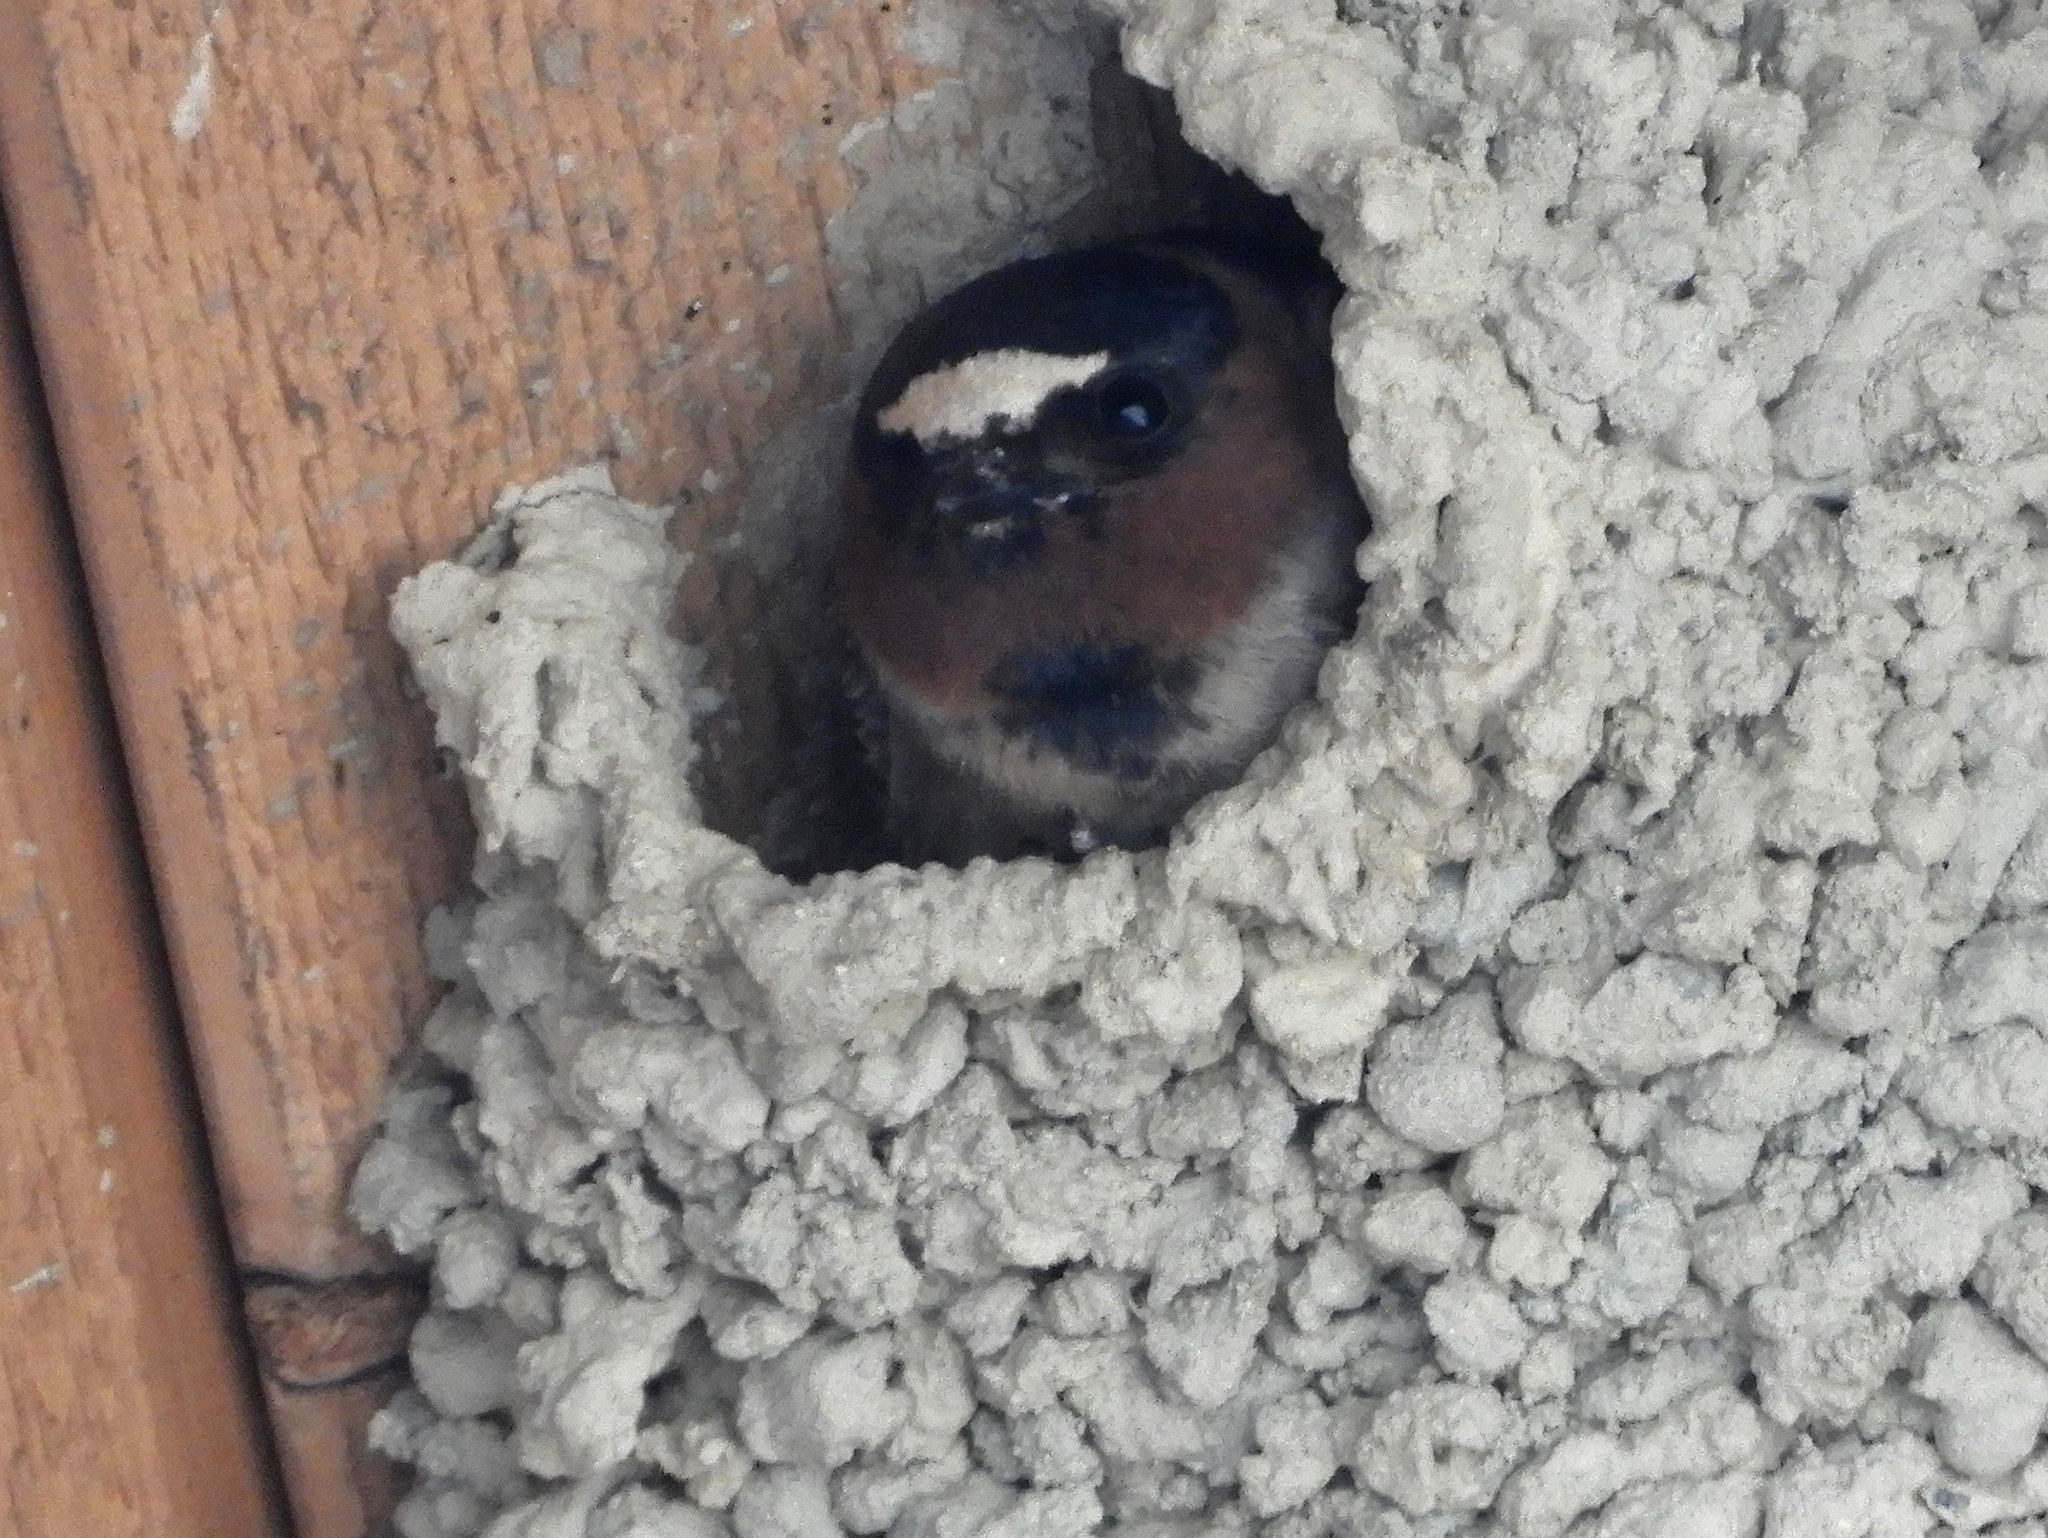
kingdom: Animalia
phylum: Chordata
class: Aves
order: Passeriformes
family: Hirundinidae
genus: Petrochelidon
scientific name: Petrochelidon pyrrhonota
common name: American cliff swallow
